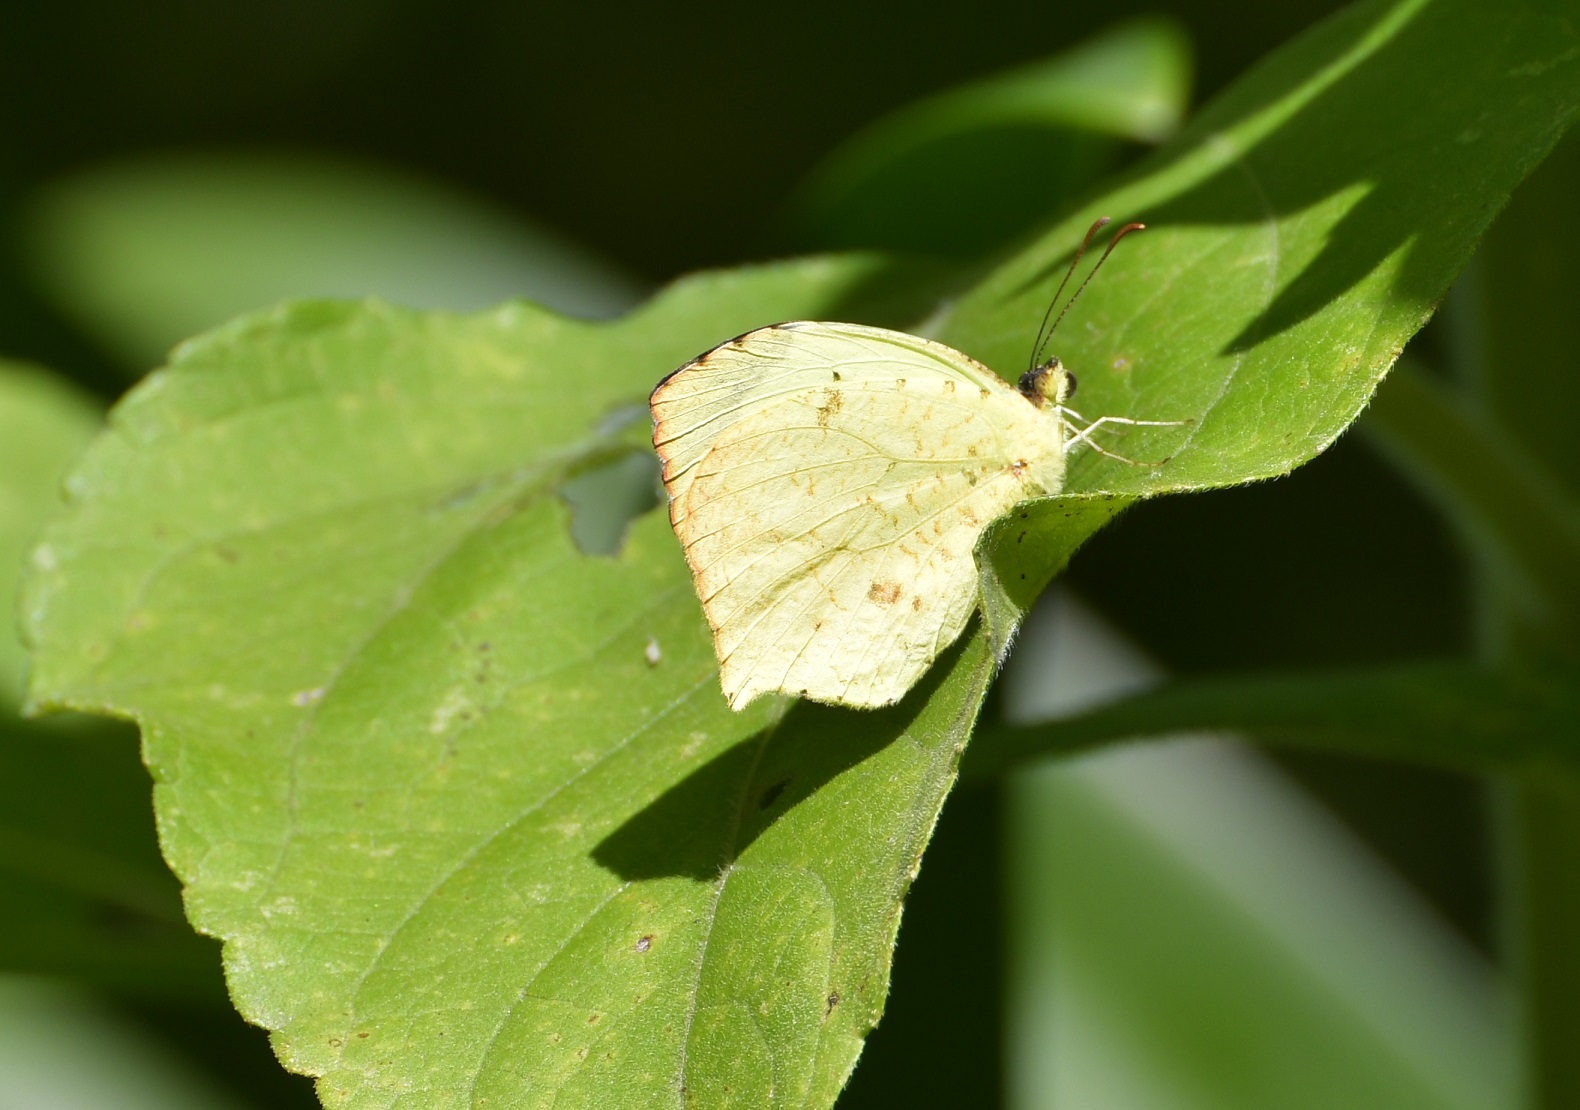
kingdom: Animalia
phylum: Arthropoda
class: Insecta
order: Lepidoptera
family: Pieridae
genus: Abaeis
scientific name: Abaeis salome
